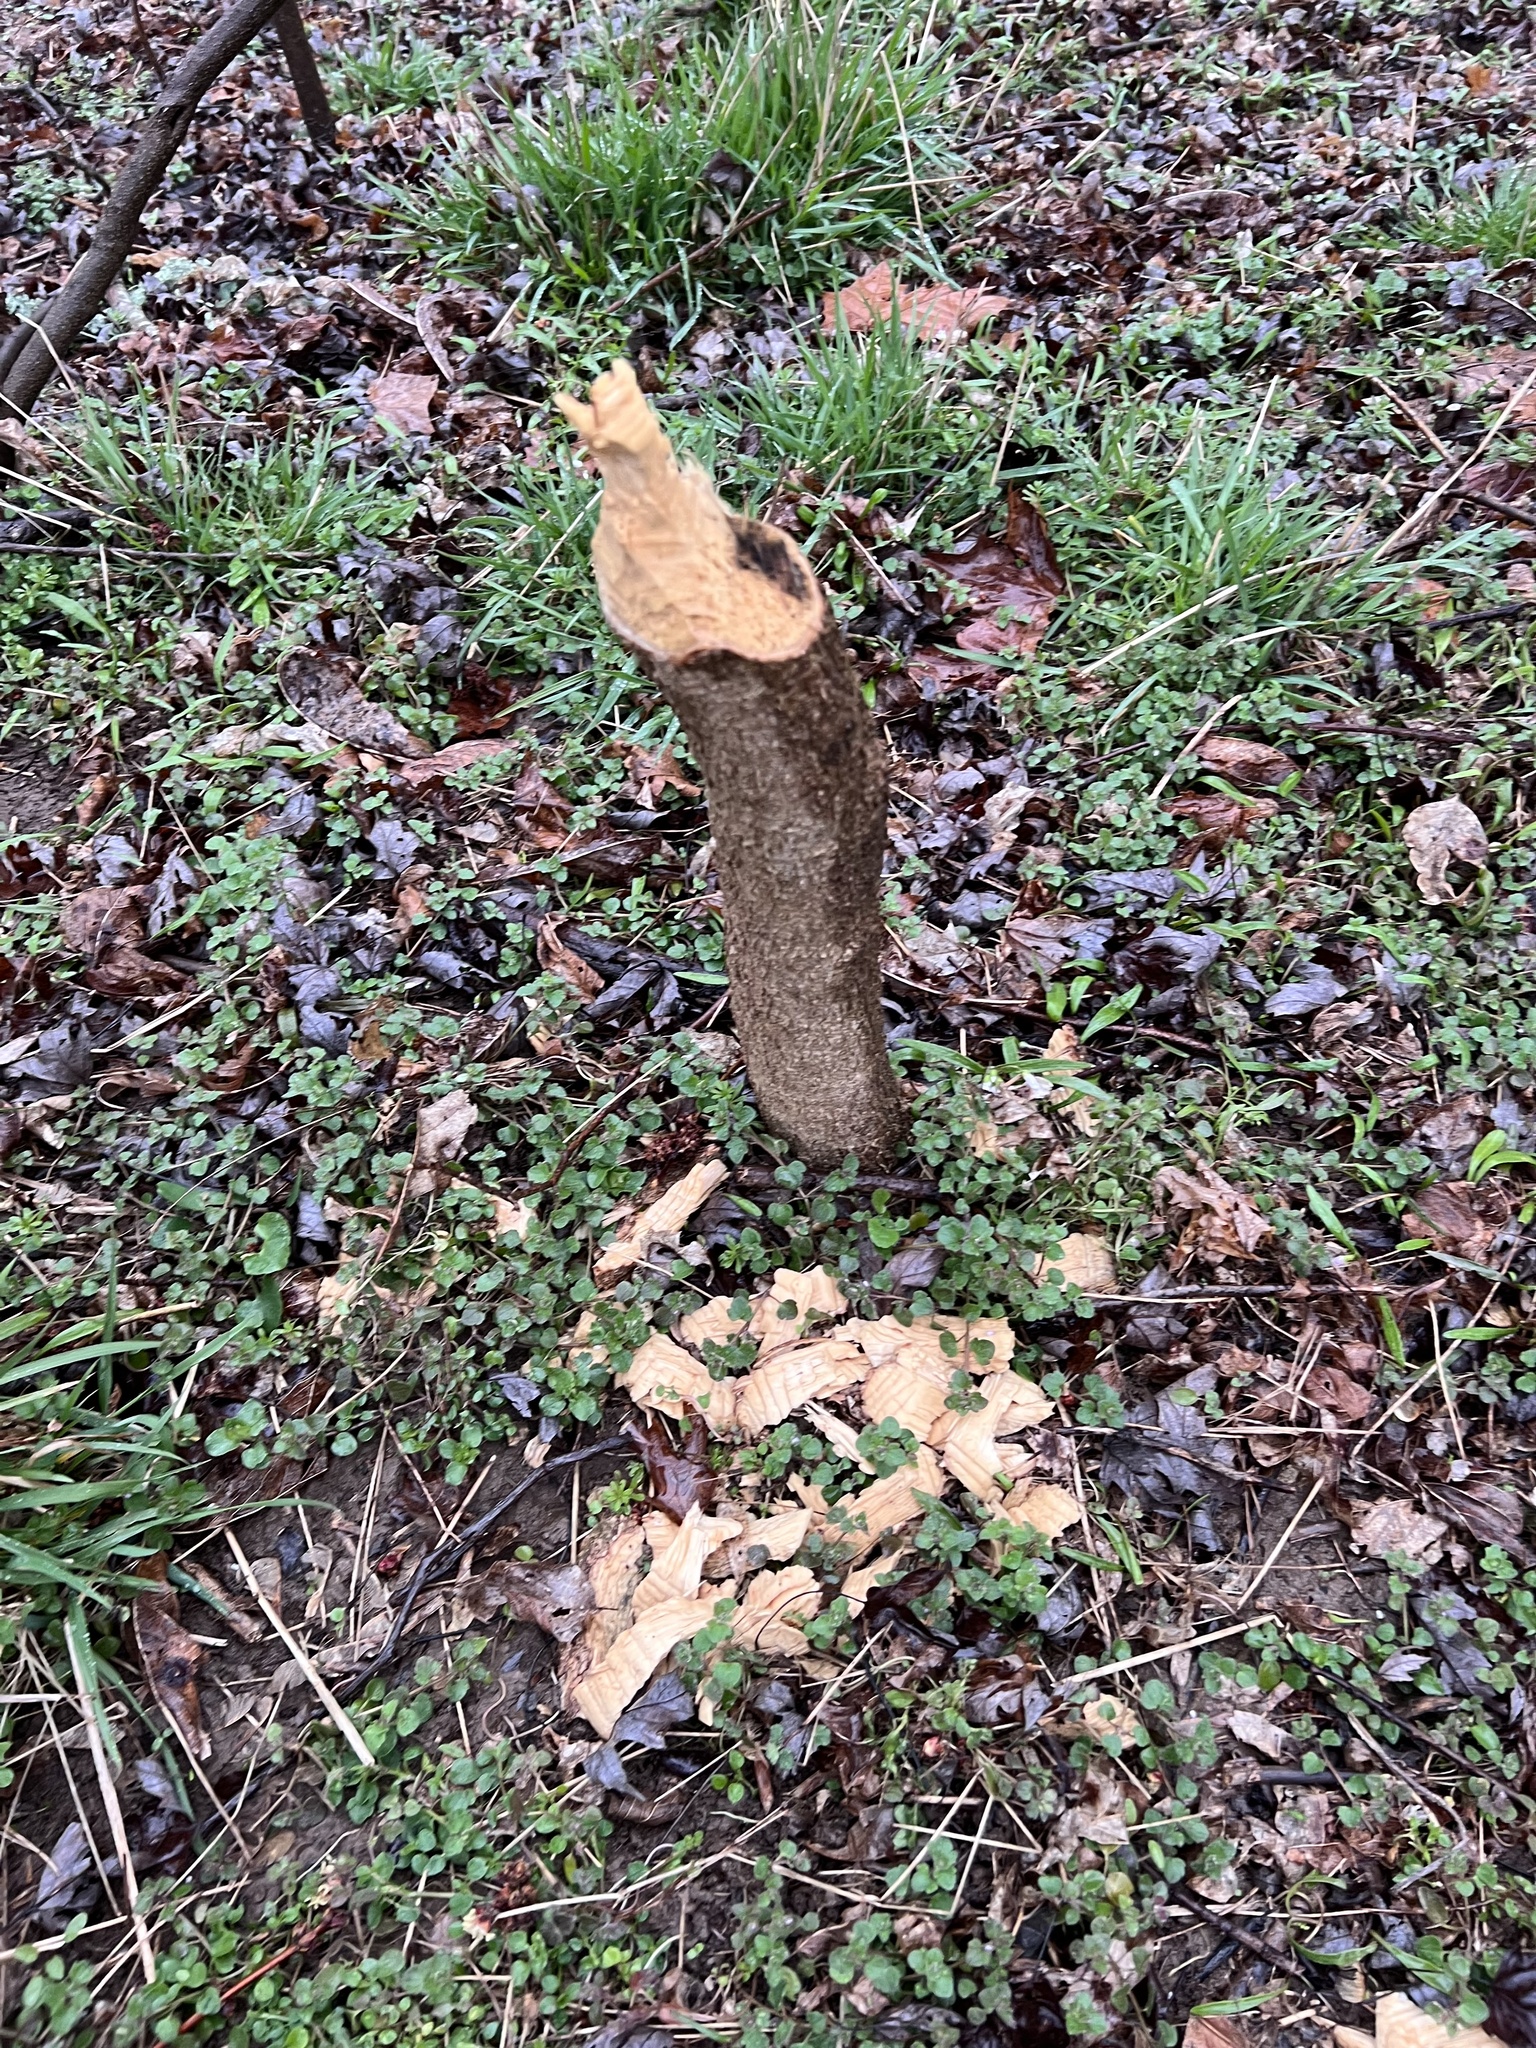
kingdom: Animalia
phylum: Chordata
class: Mammalia
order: Rodentia
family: Castoridae
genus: Castor
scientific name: Castor canadensis
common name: American beaver
